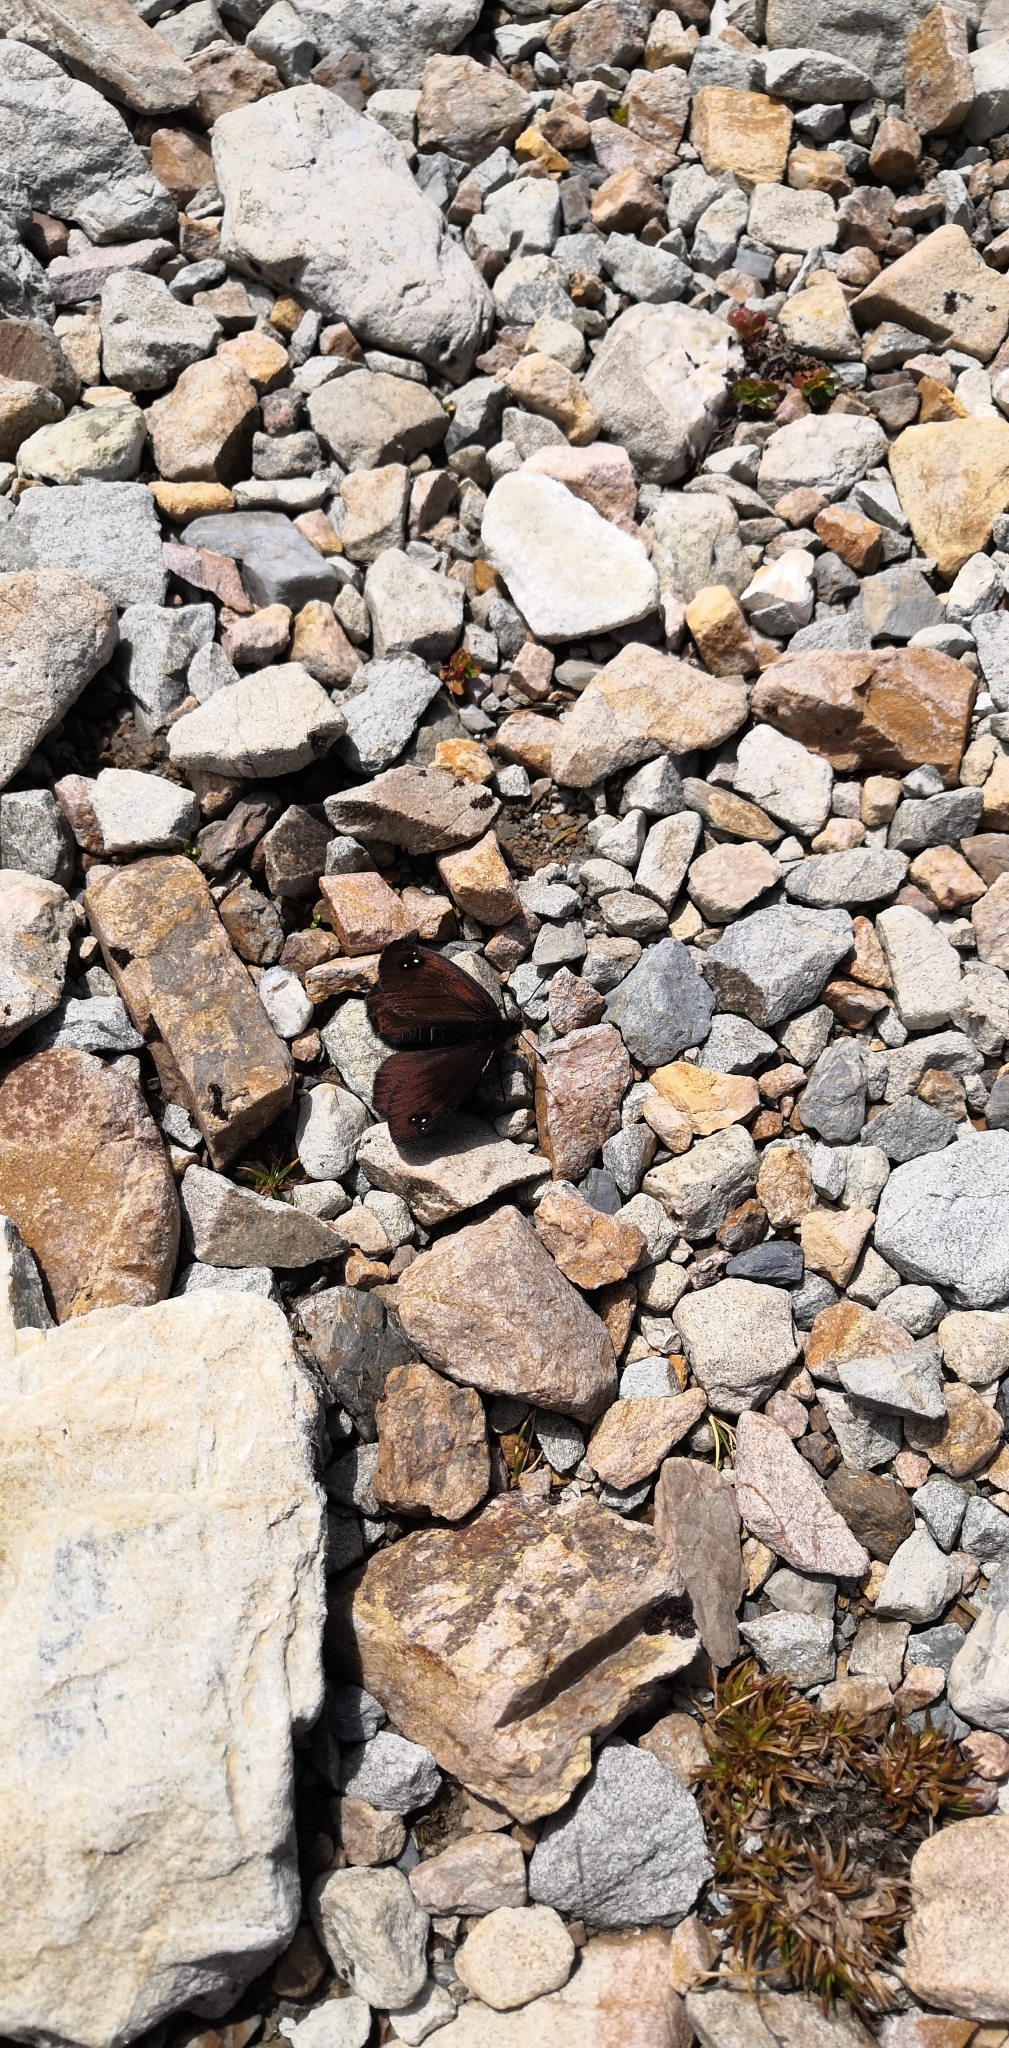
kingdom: Animalia
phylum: Arthropoda
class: Insecta
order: Lepidoptera
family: Nymphalidae
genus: Erebia
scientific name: Erebia Percnodaimon merula
